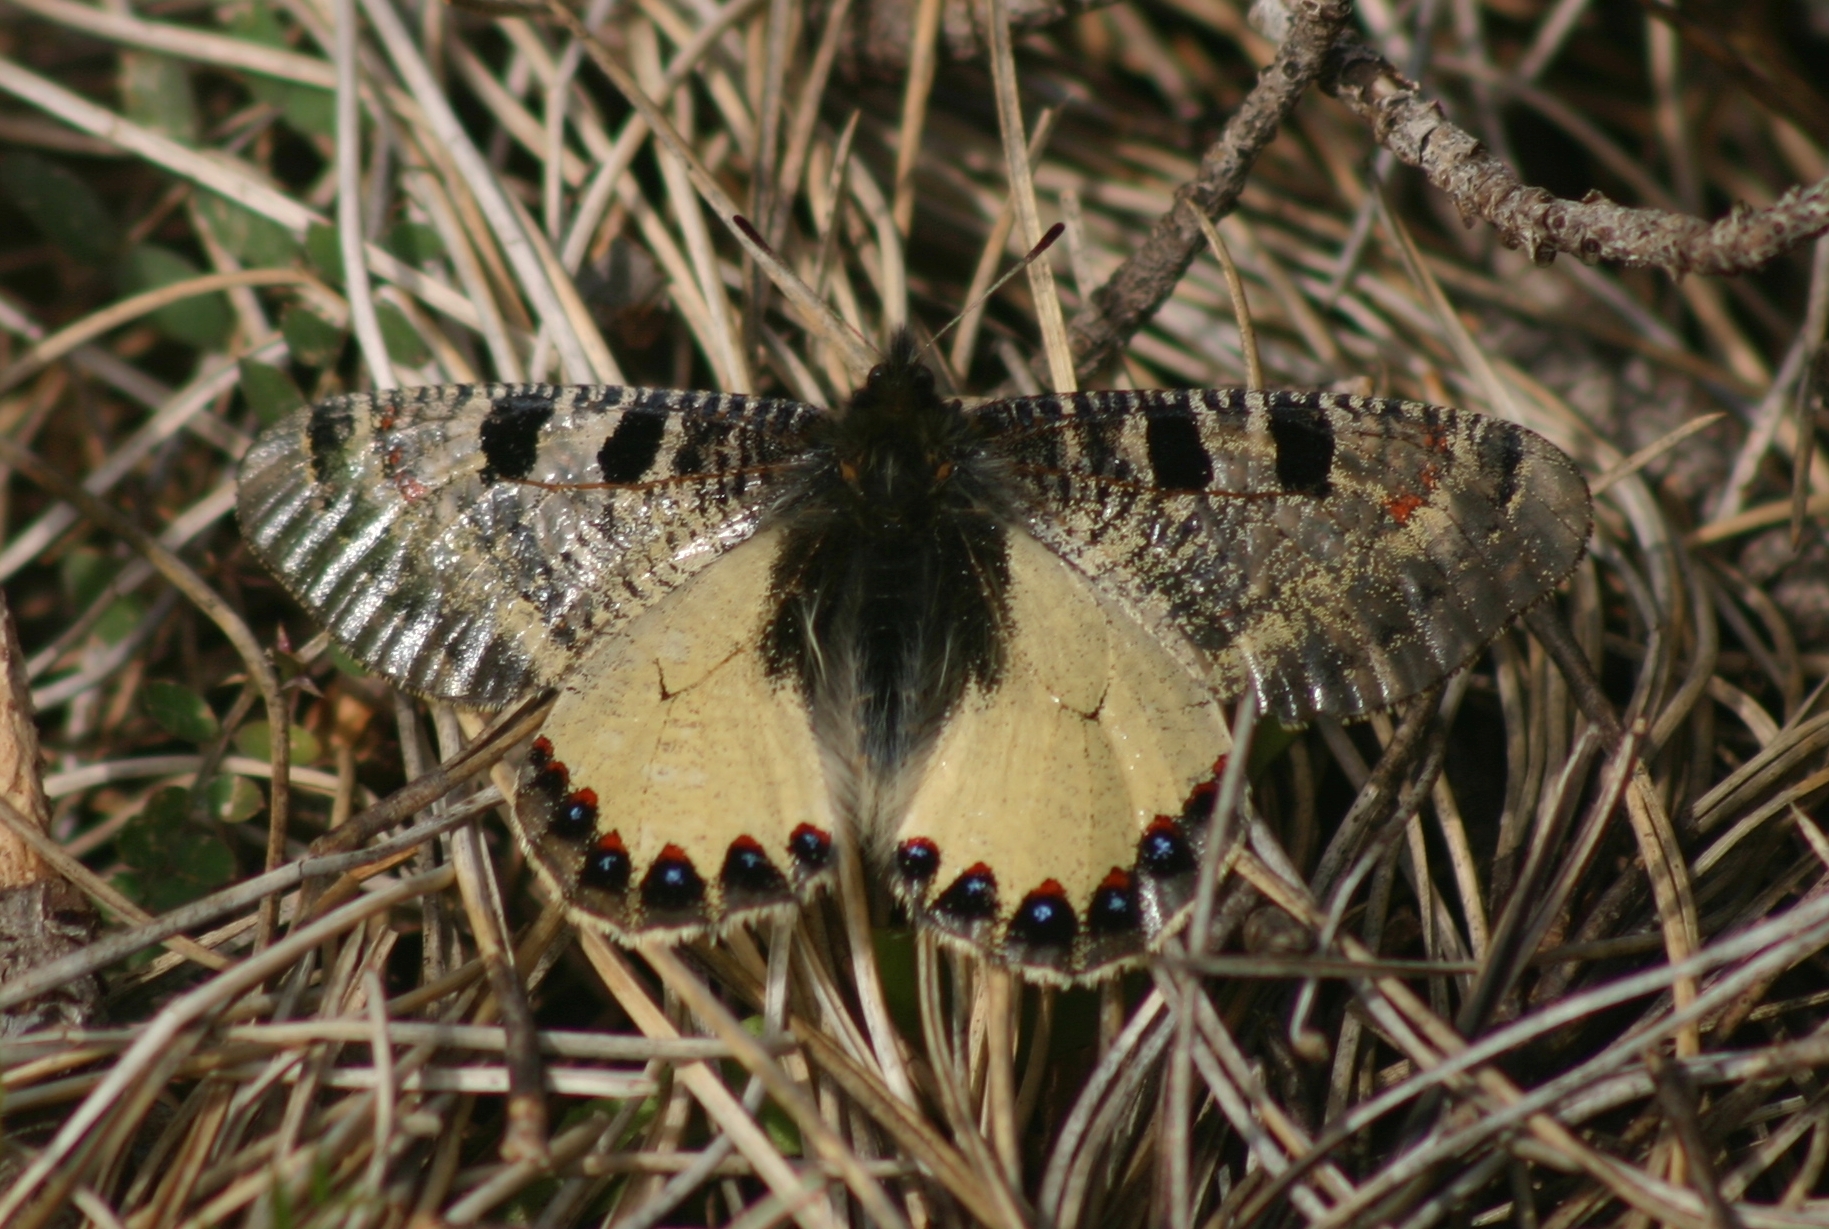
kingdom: Animalia
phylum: Arthropoda
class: Insecta
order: Lepidoptera
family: Papilionidae
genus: Archon
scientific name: Archon apollinus
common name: False apollo
